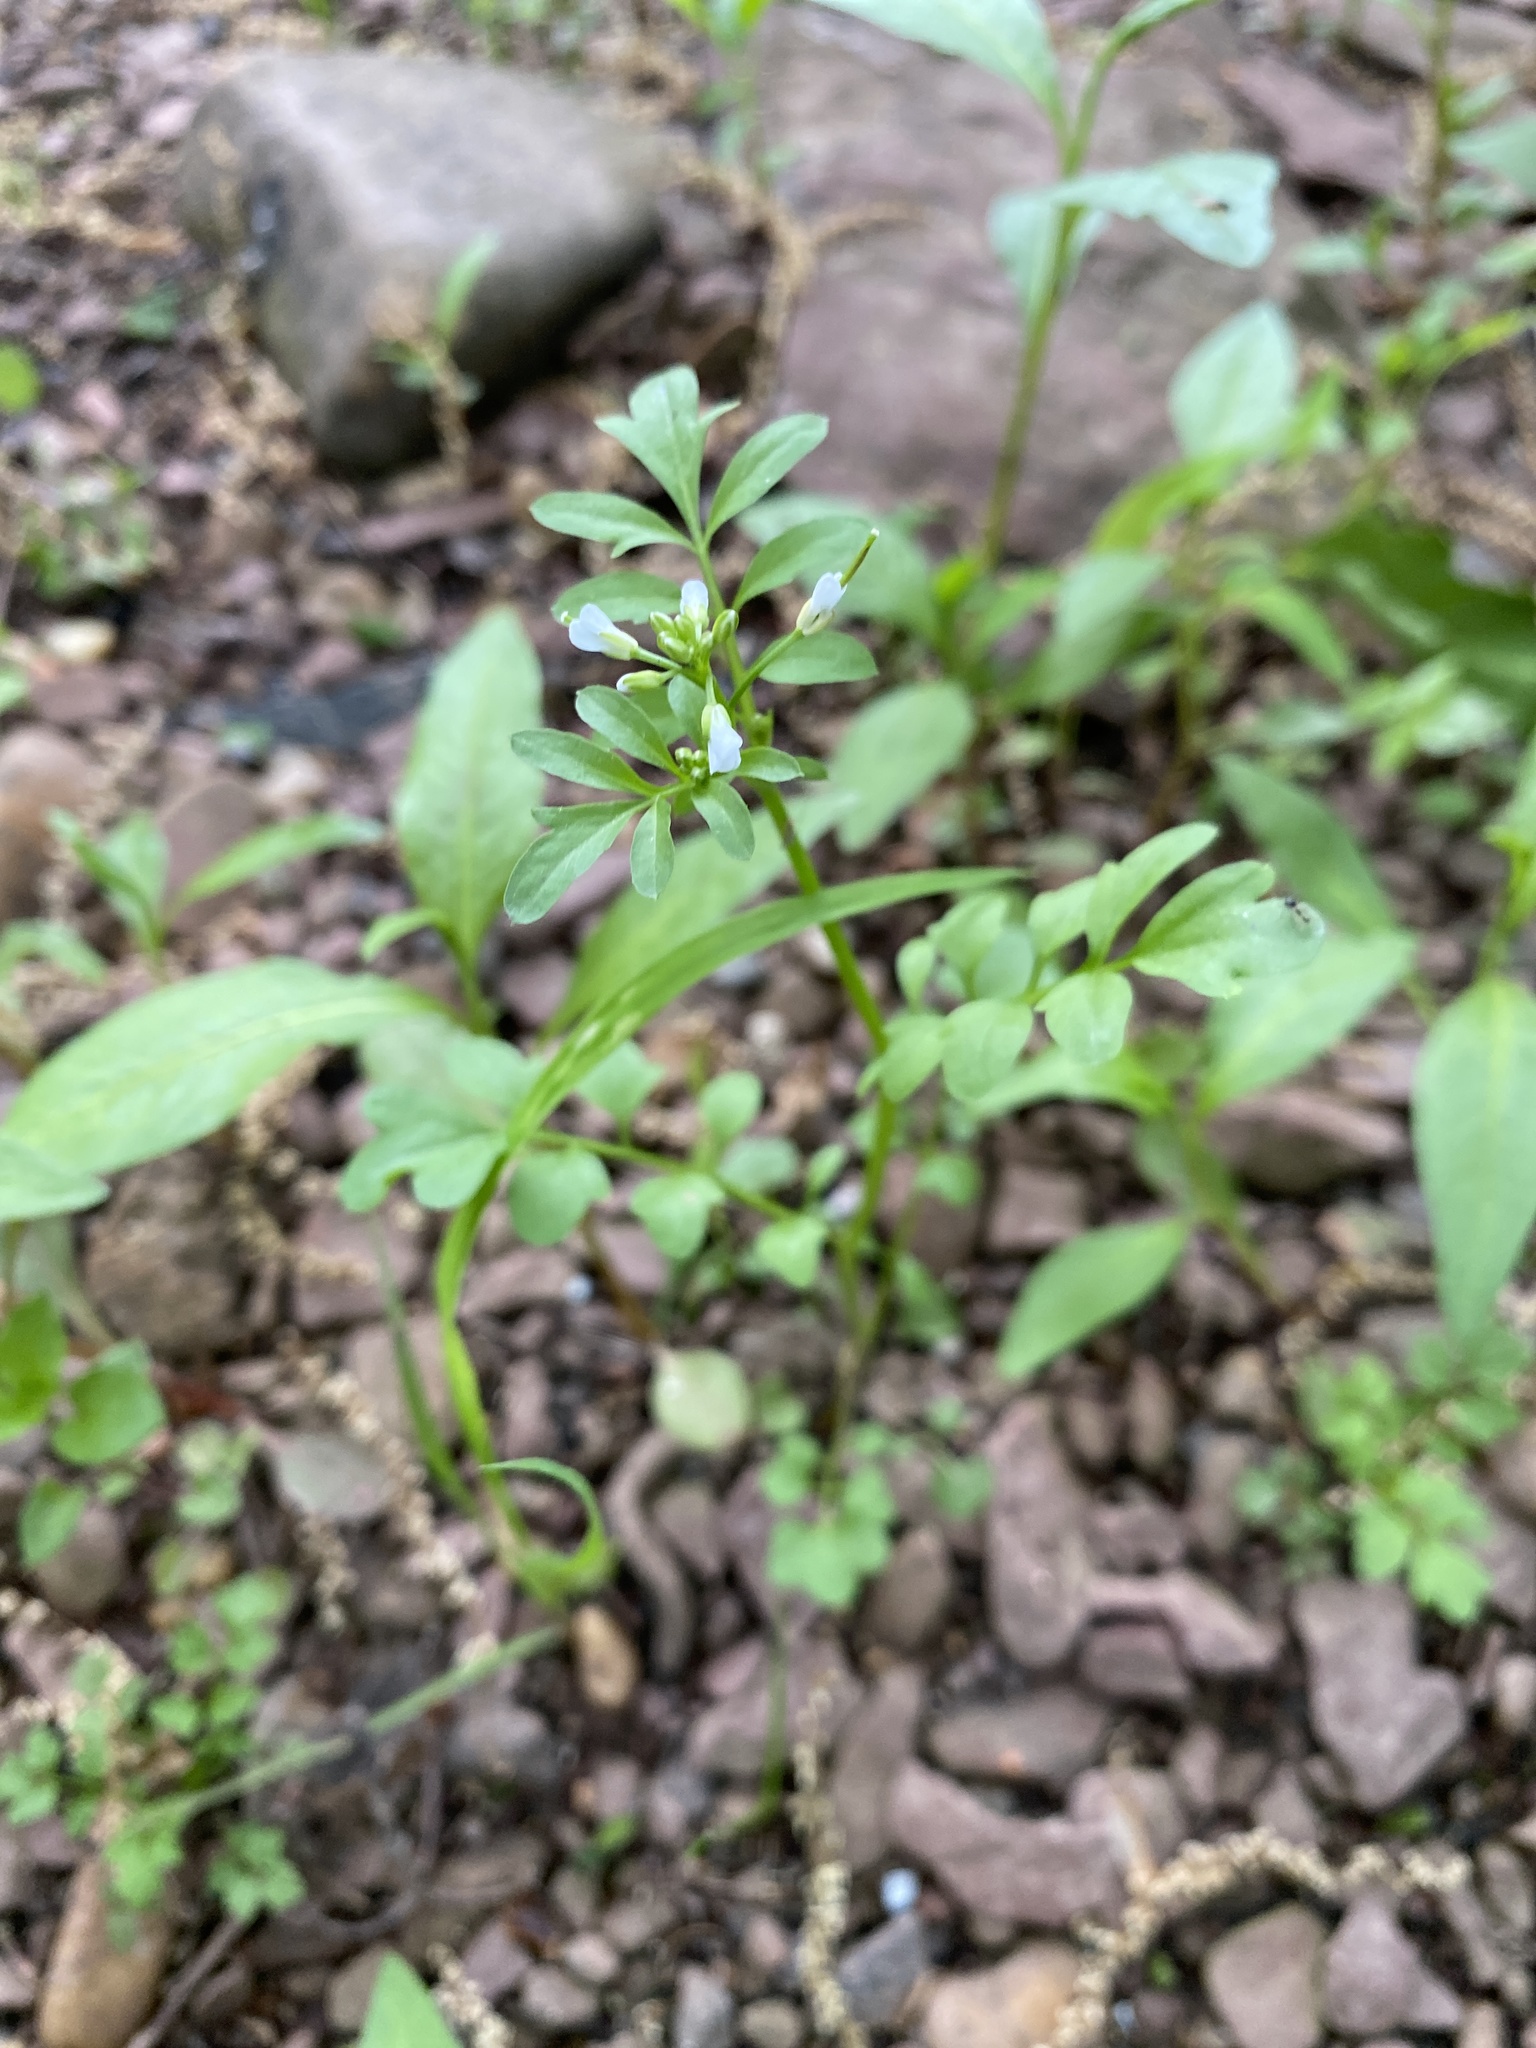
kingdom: Plantae
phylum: Tracheophyta
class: Magnoliopsida
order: Brassicales
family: Brassicaceae
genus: Cardamine
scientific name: Cardamine pensylvanica
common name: Pennsylvania bittercress
